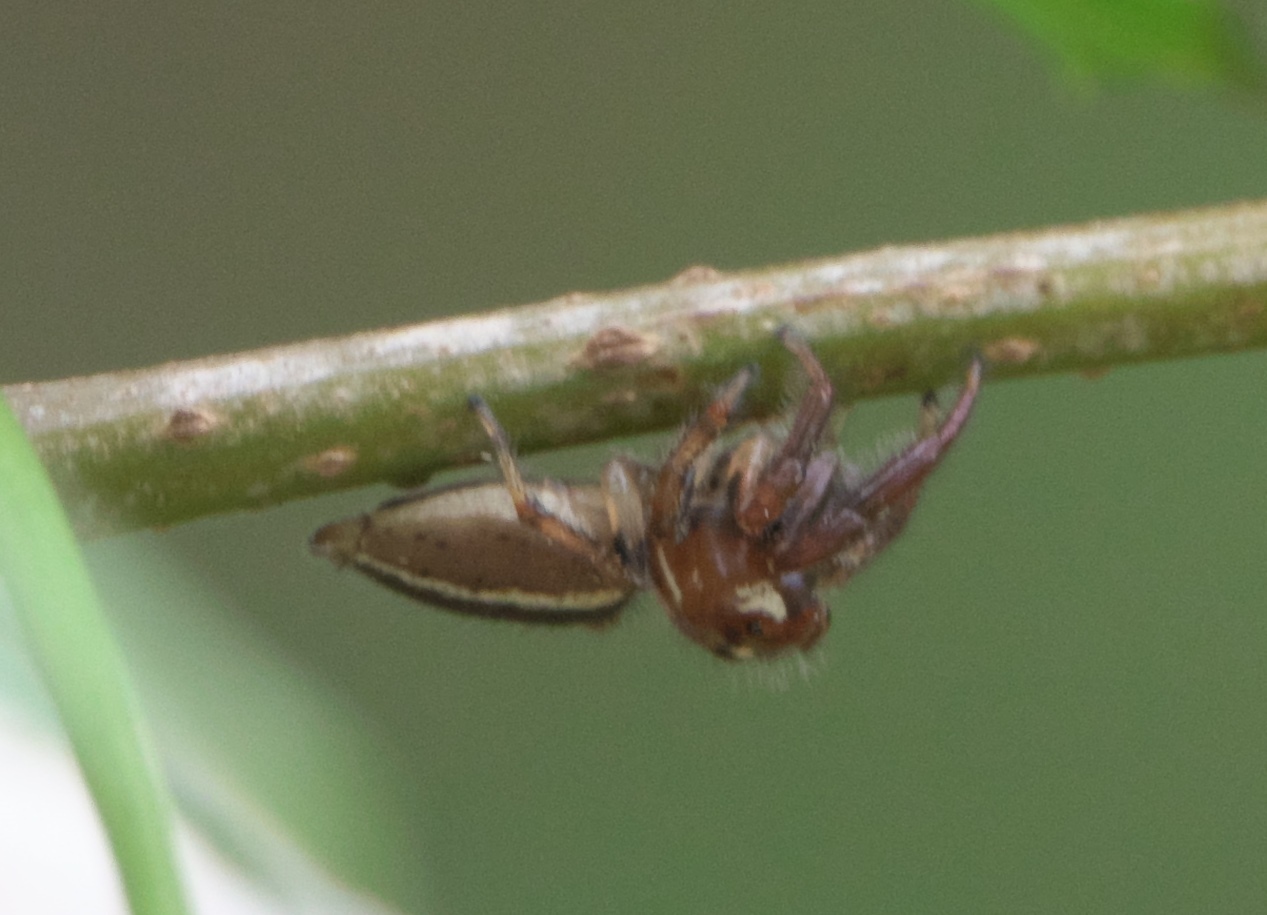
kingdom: Animalia
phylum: Arthropoda
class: Arachnida
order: Araneae
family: Salticidae
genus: Colonus
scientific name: Colonus sylvanus
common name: Jumping spiders
